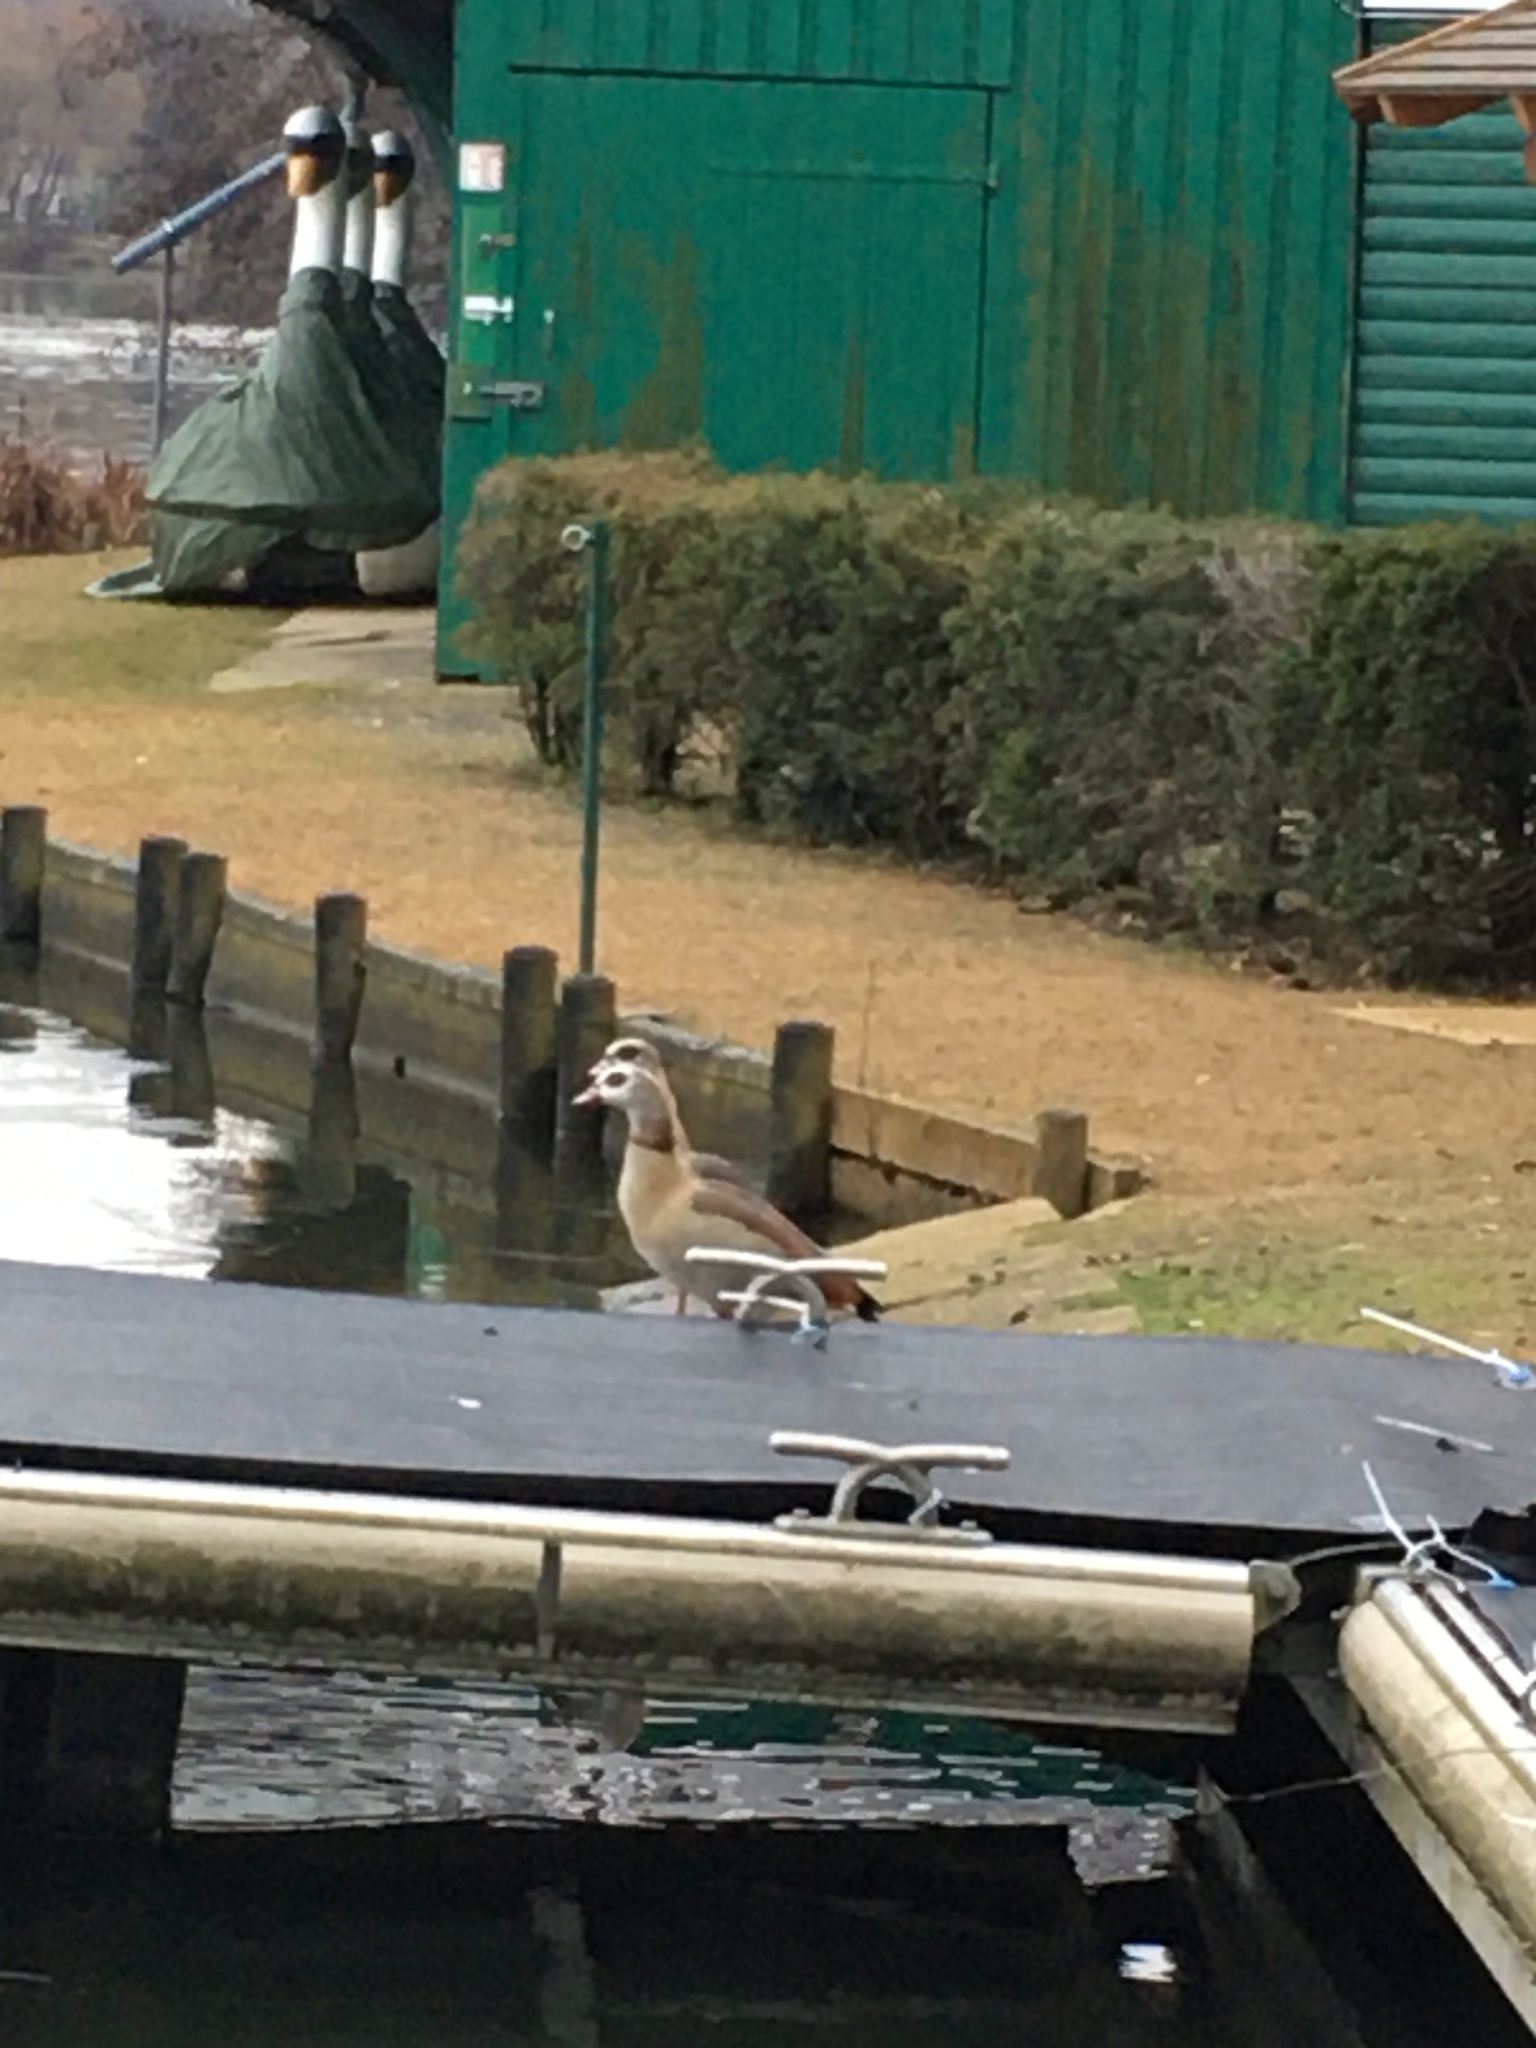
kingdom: Animalia
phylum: Chordata
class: Aves
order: Anseriformes
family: Anatidae
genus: Alopochen
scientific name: Alopochen aegyptiaca
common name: Egyptian goose
